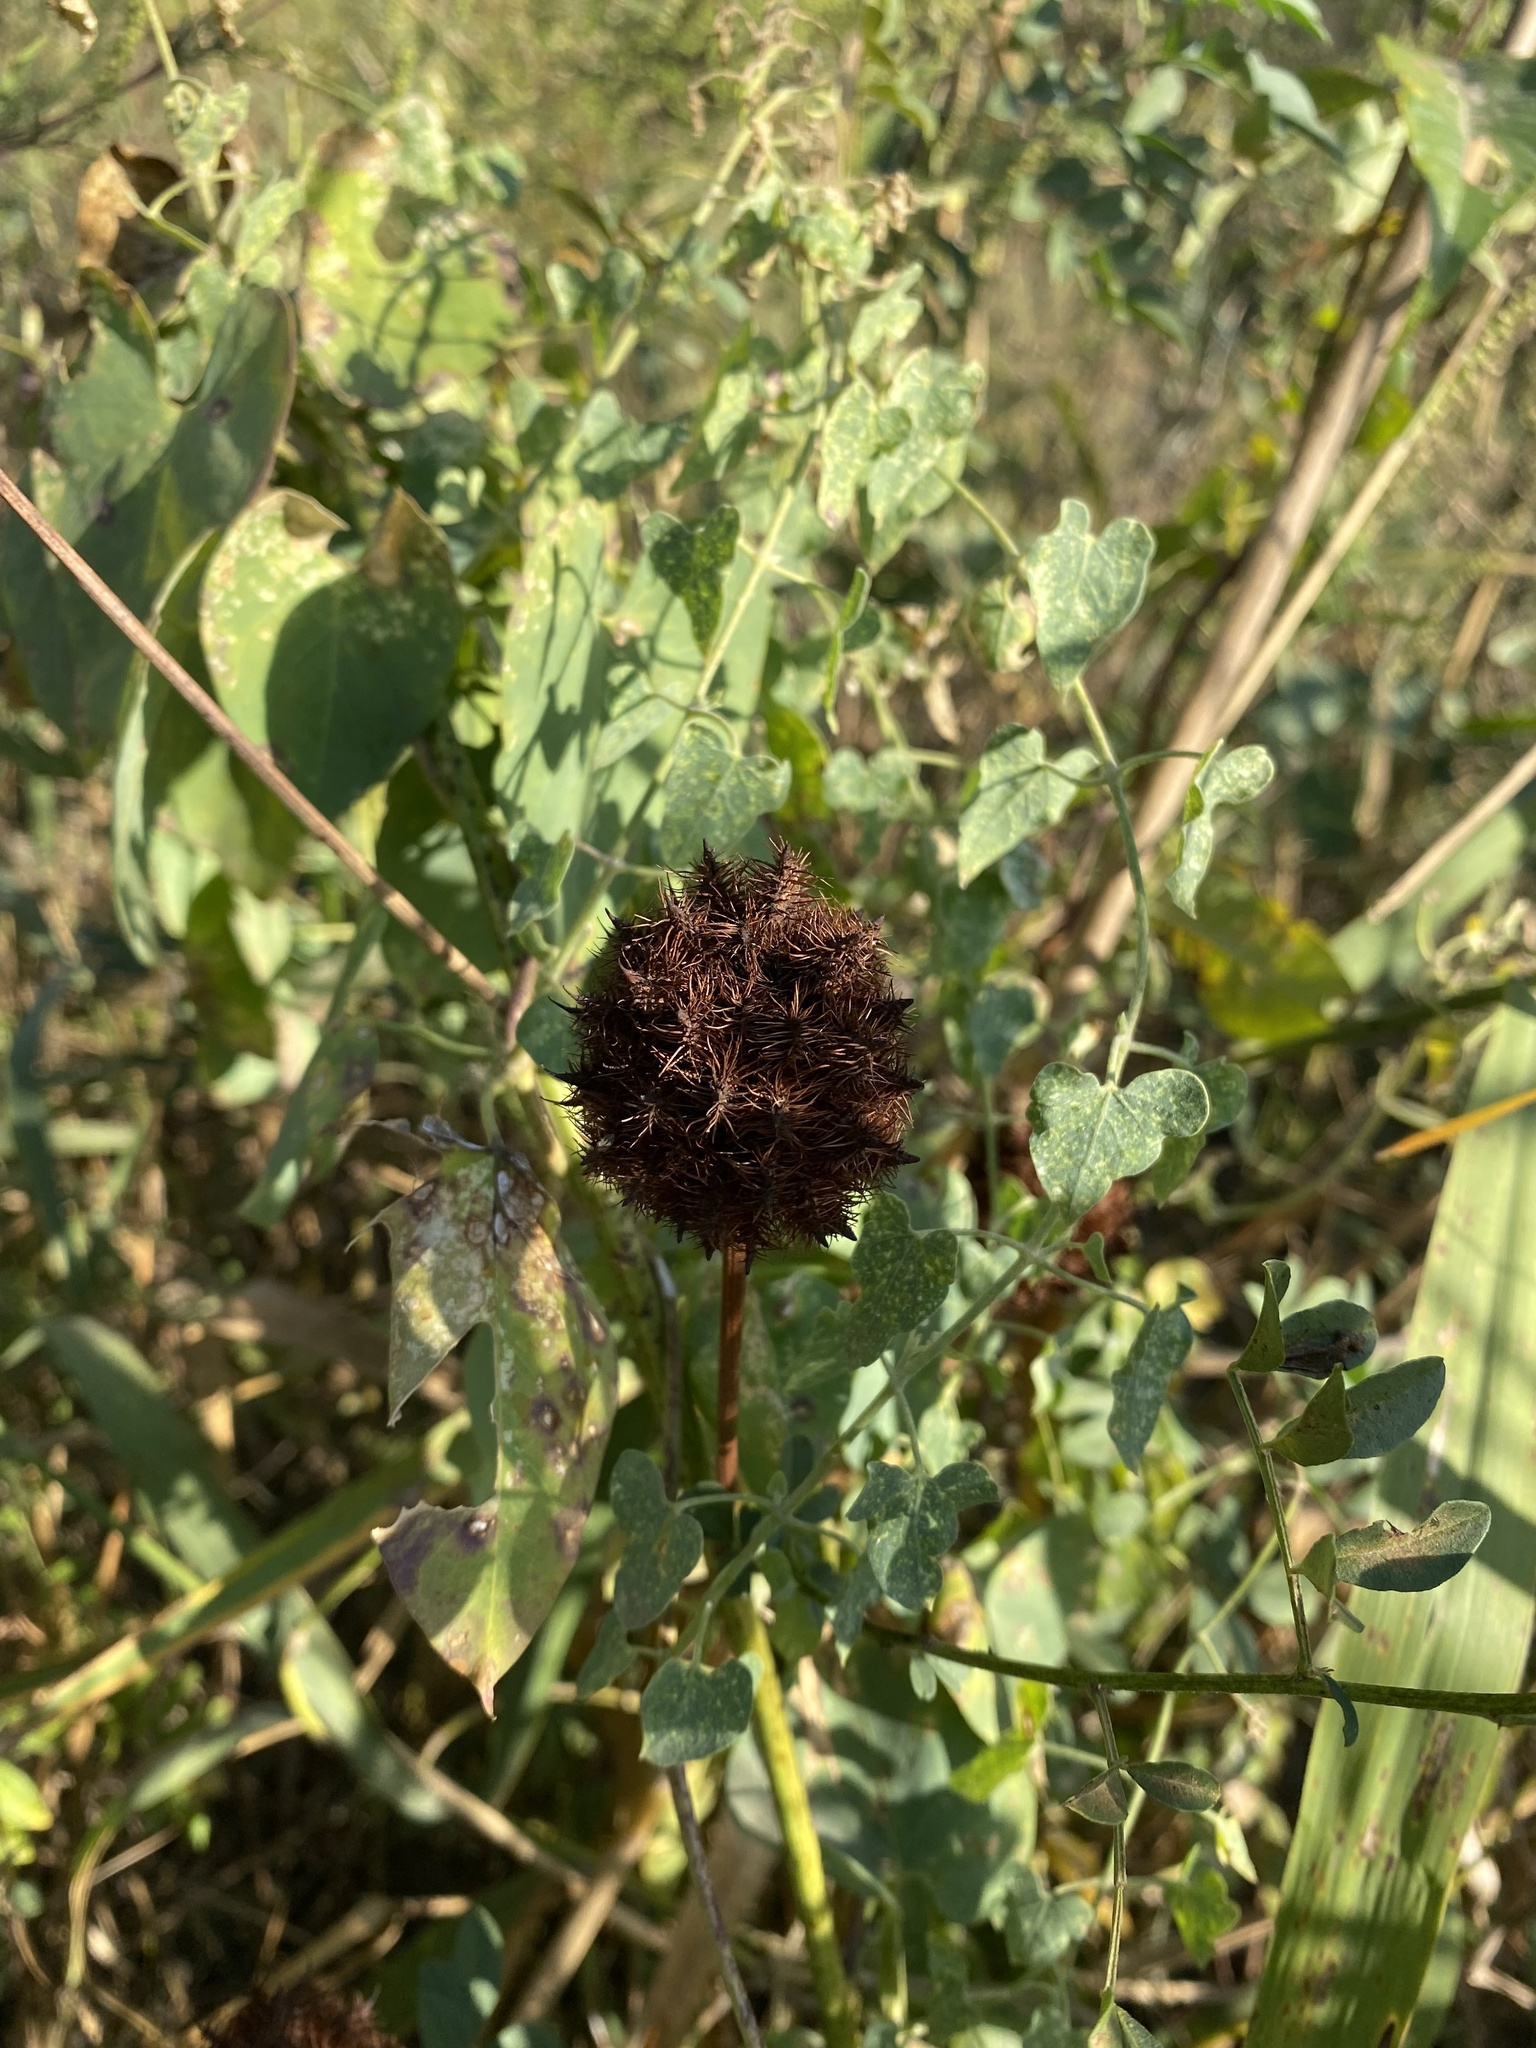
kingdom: Plantae
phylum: Tracheophyta
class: Magnoliopsida
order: Fabales
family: Fabaceae
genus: Glycyrrhiza
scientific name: Glycyrrhiza echinata
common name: German liquorice
